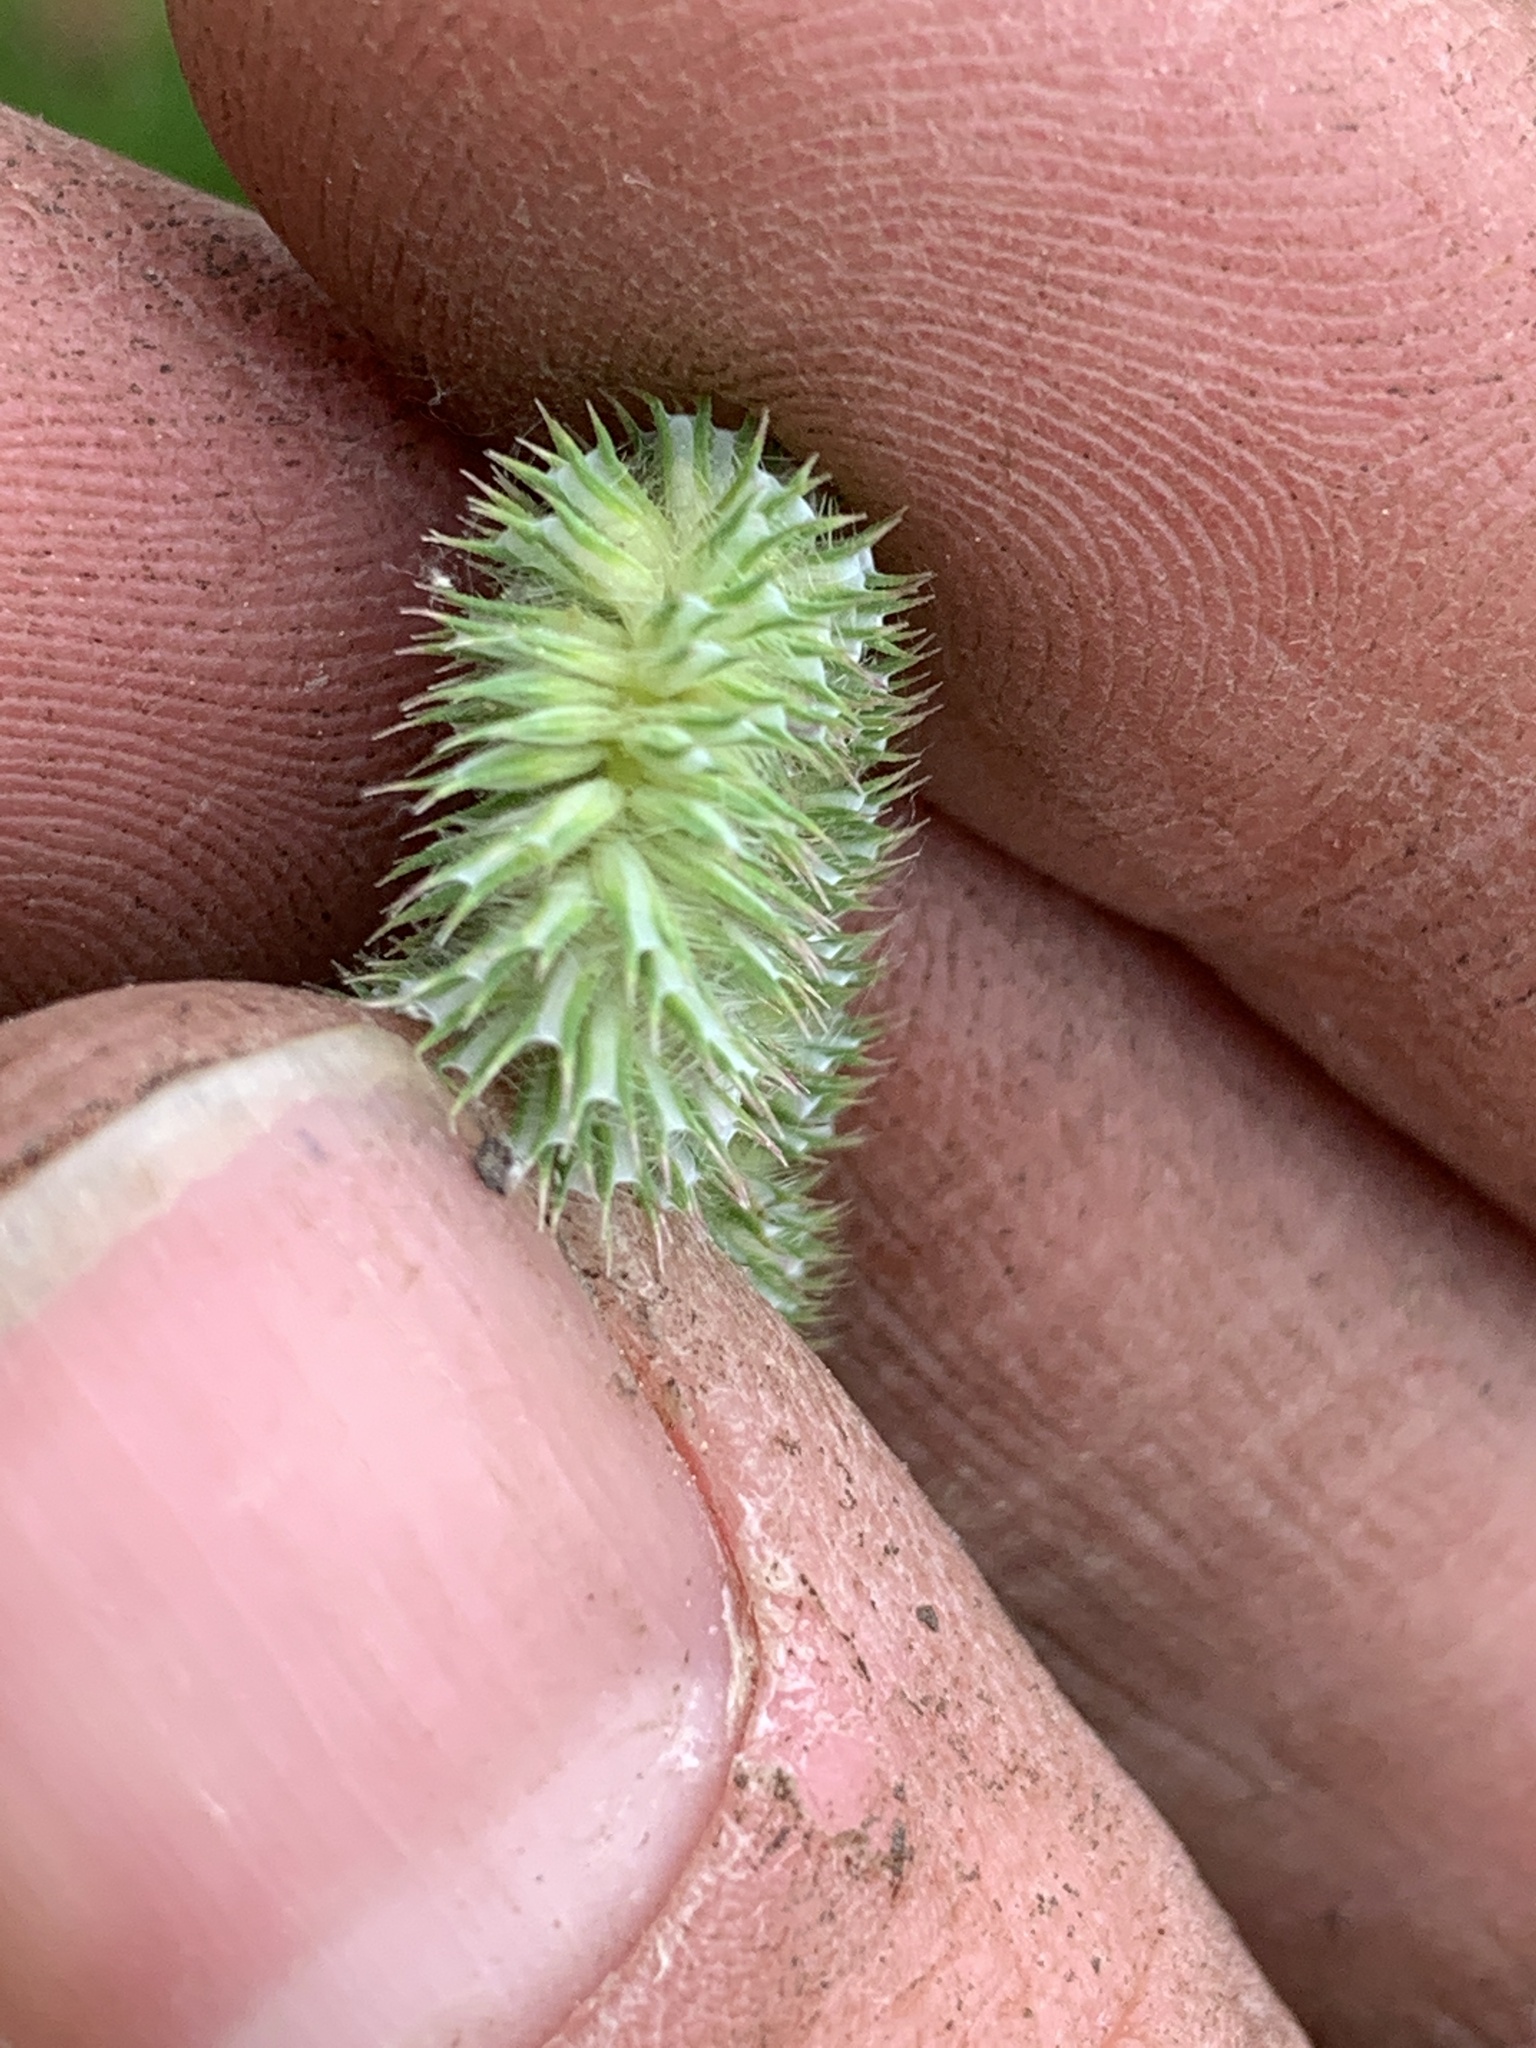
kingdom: Plantae
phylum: Tracheophyta
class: Liliopsida
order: Poales
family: Poaceae
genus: Phleum
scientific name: Phleum pratense
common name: Timothy grass
